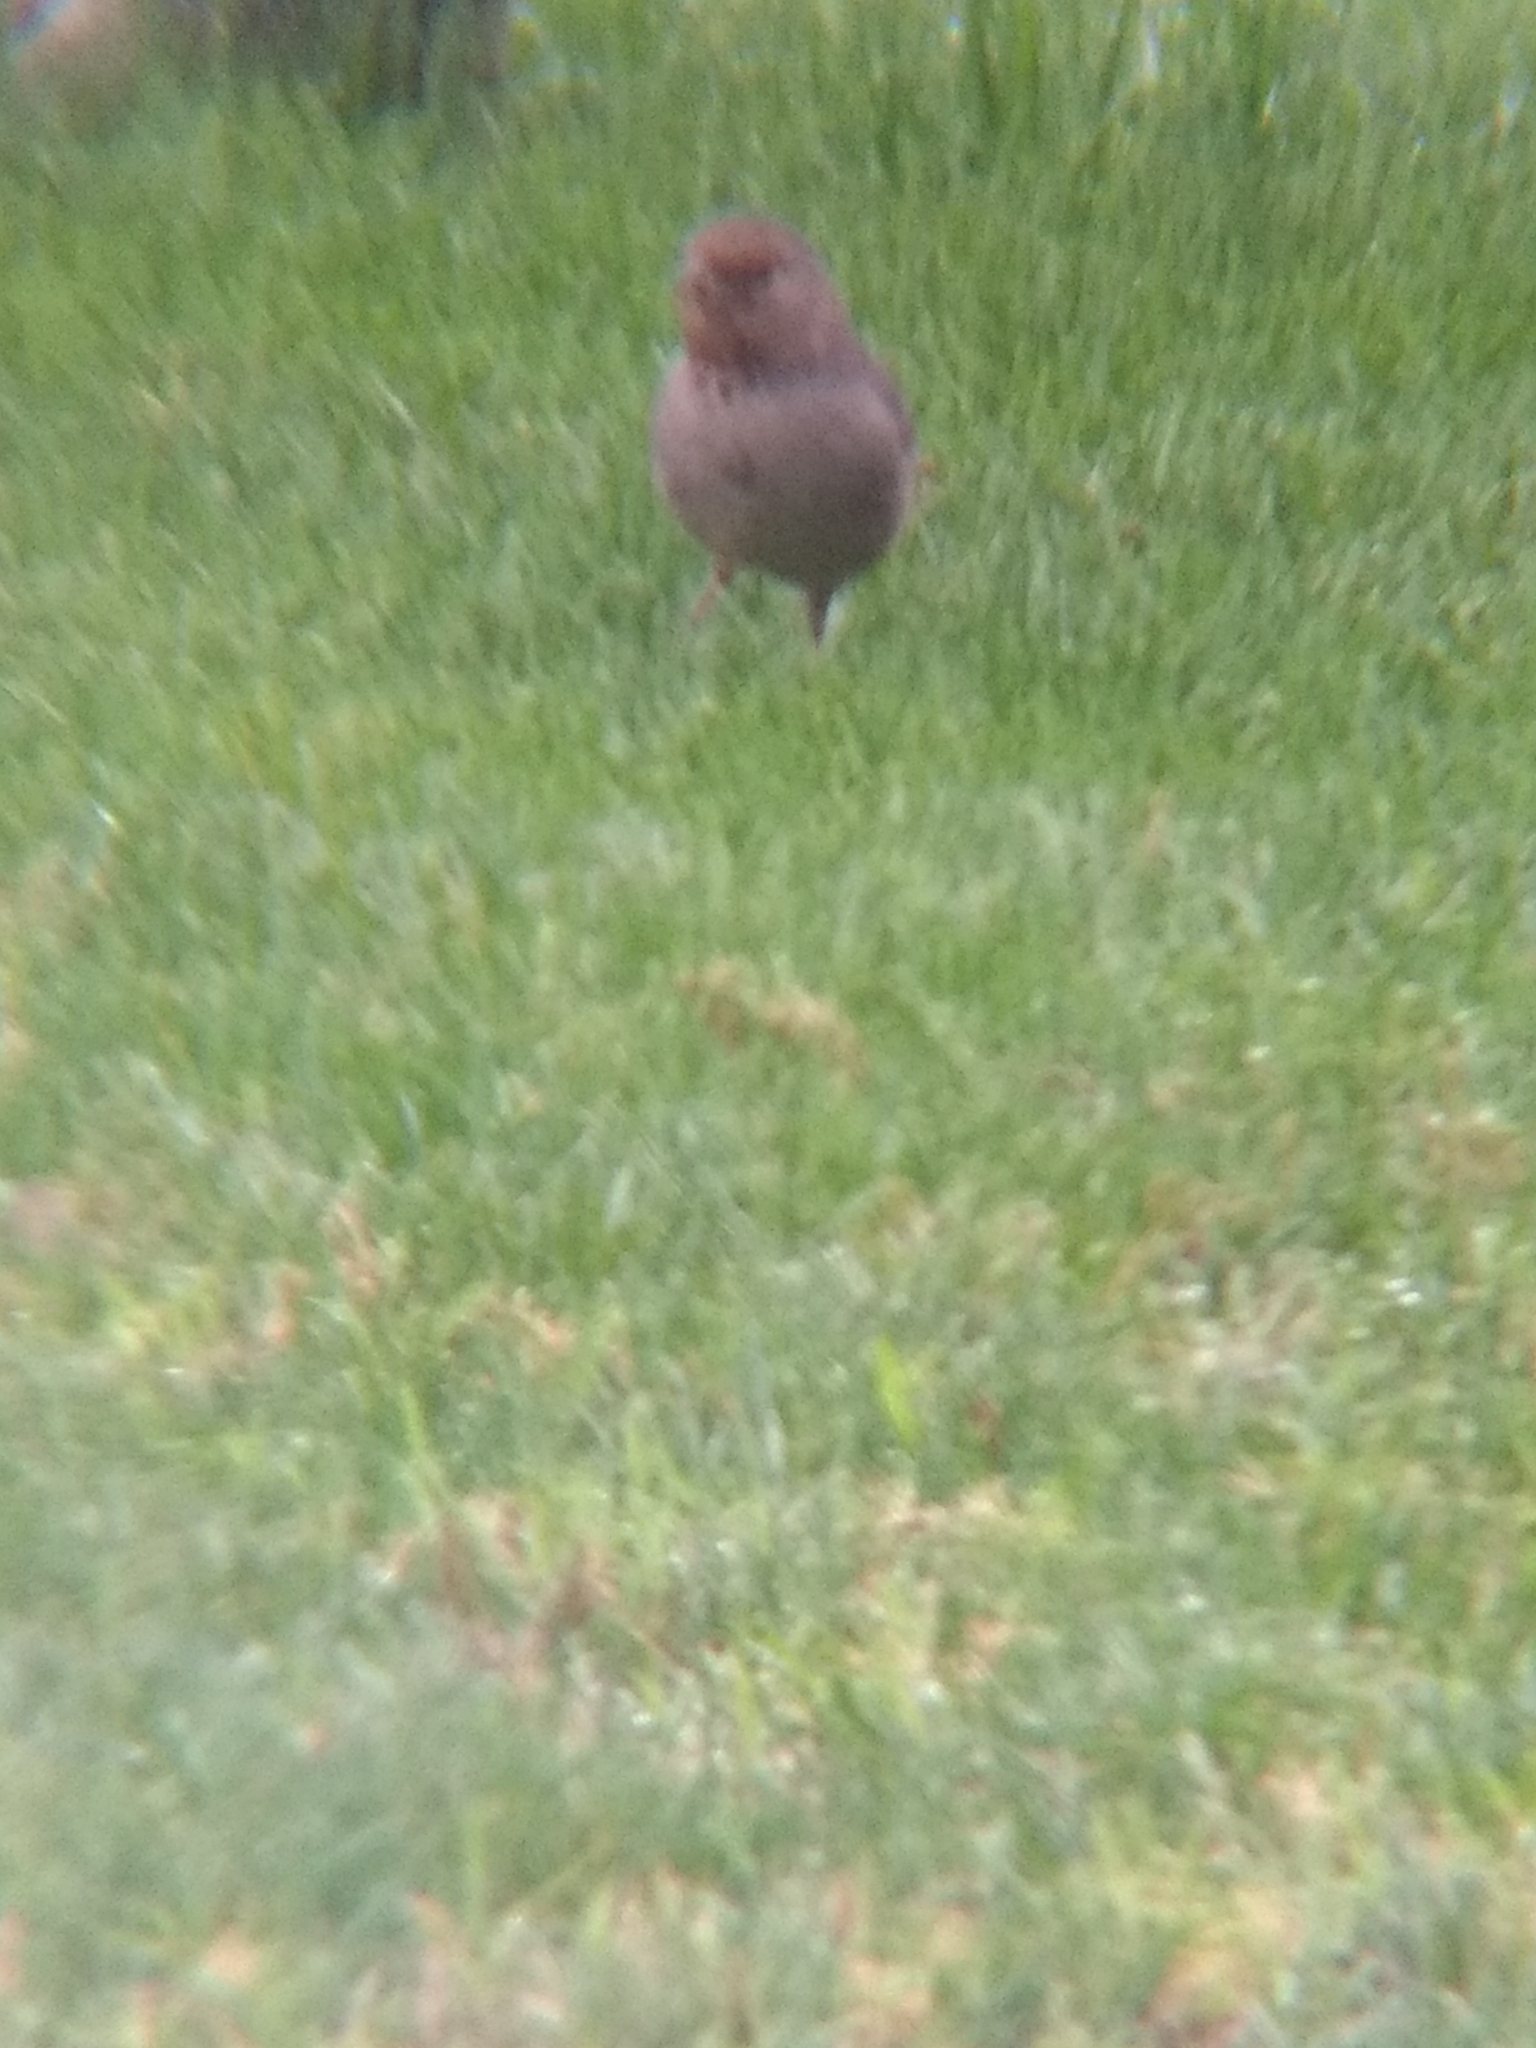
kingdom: Animalia
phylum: Chordata
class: Aves
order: Passeriformes
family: Passerellidae
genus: Melozone
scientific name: Melozone crissalis
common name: California towhee
